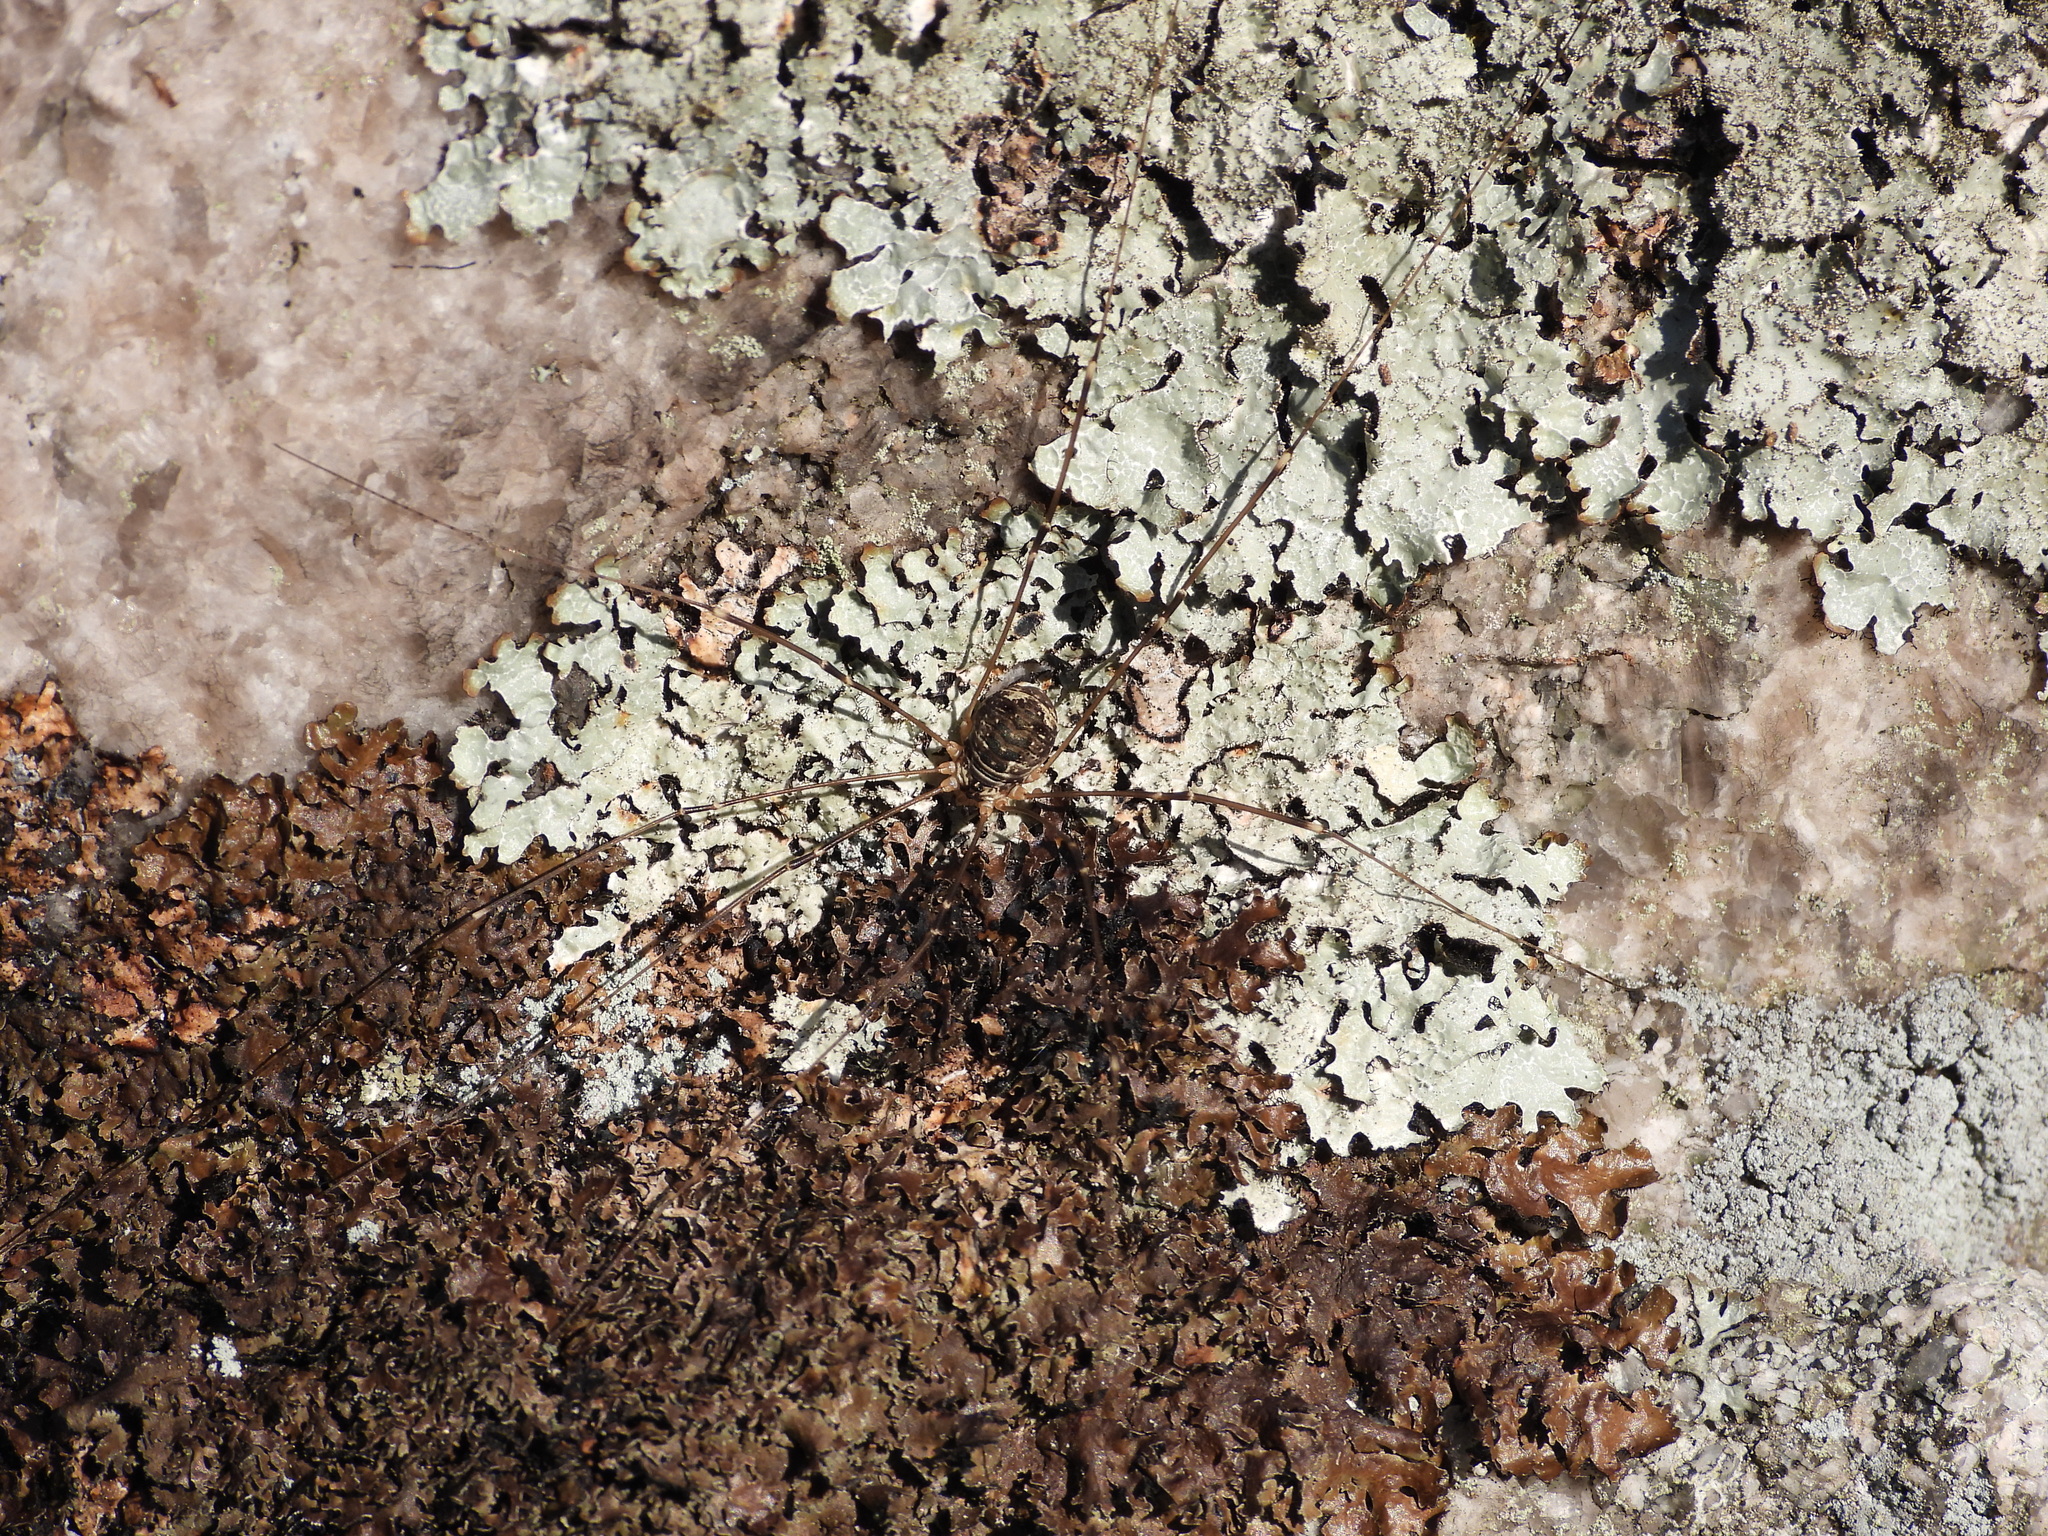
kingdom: Animalia
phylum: Arthropoda
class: Arachnida
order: Opiliones
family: Sclerosomatidae
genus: Leiobunum
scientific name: Leiobunum gracile
